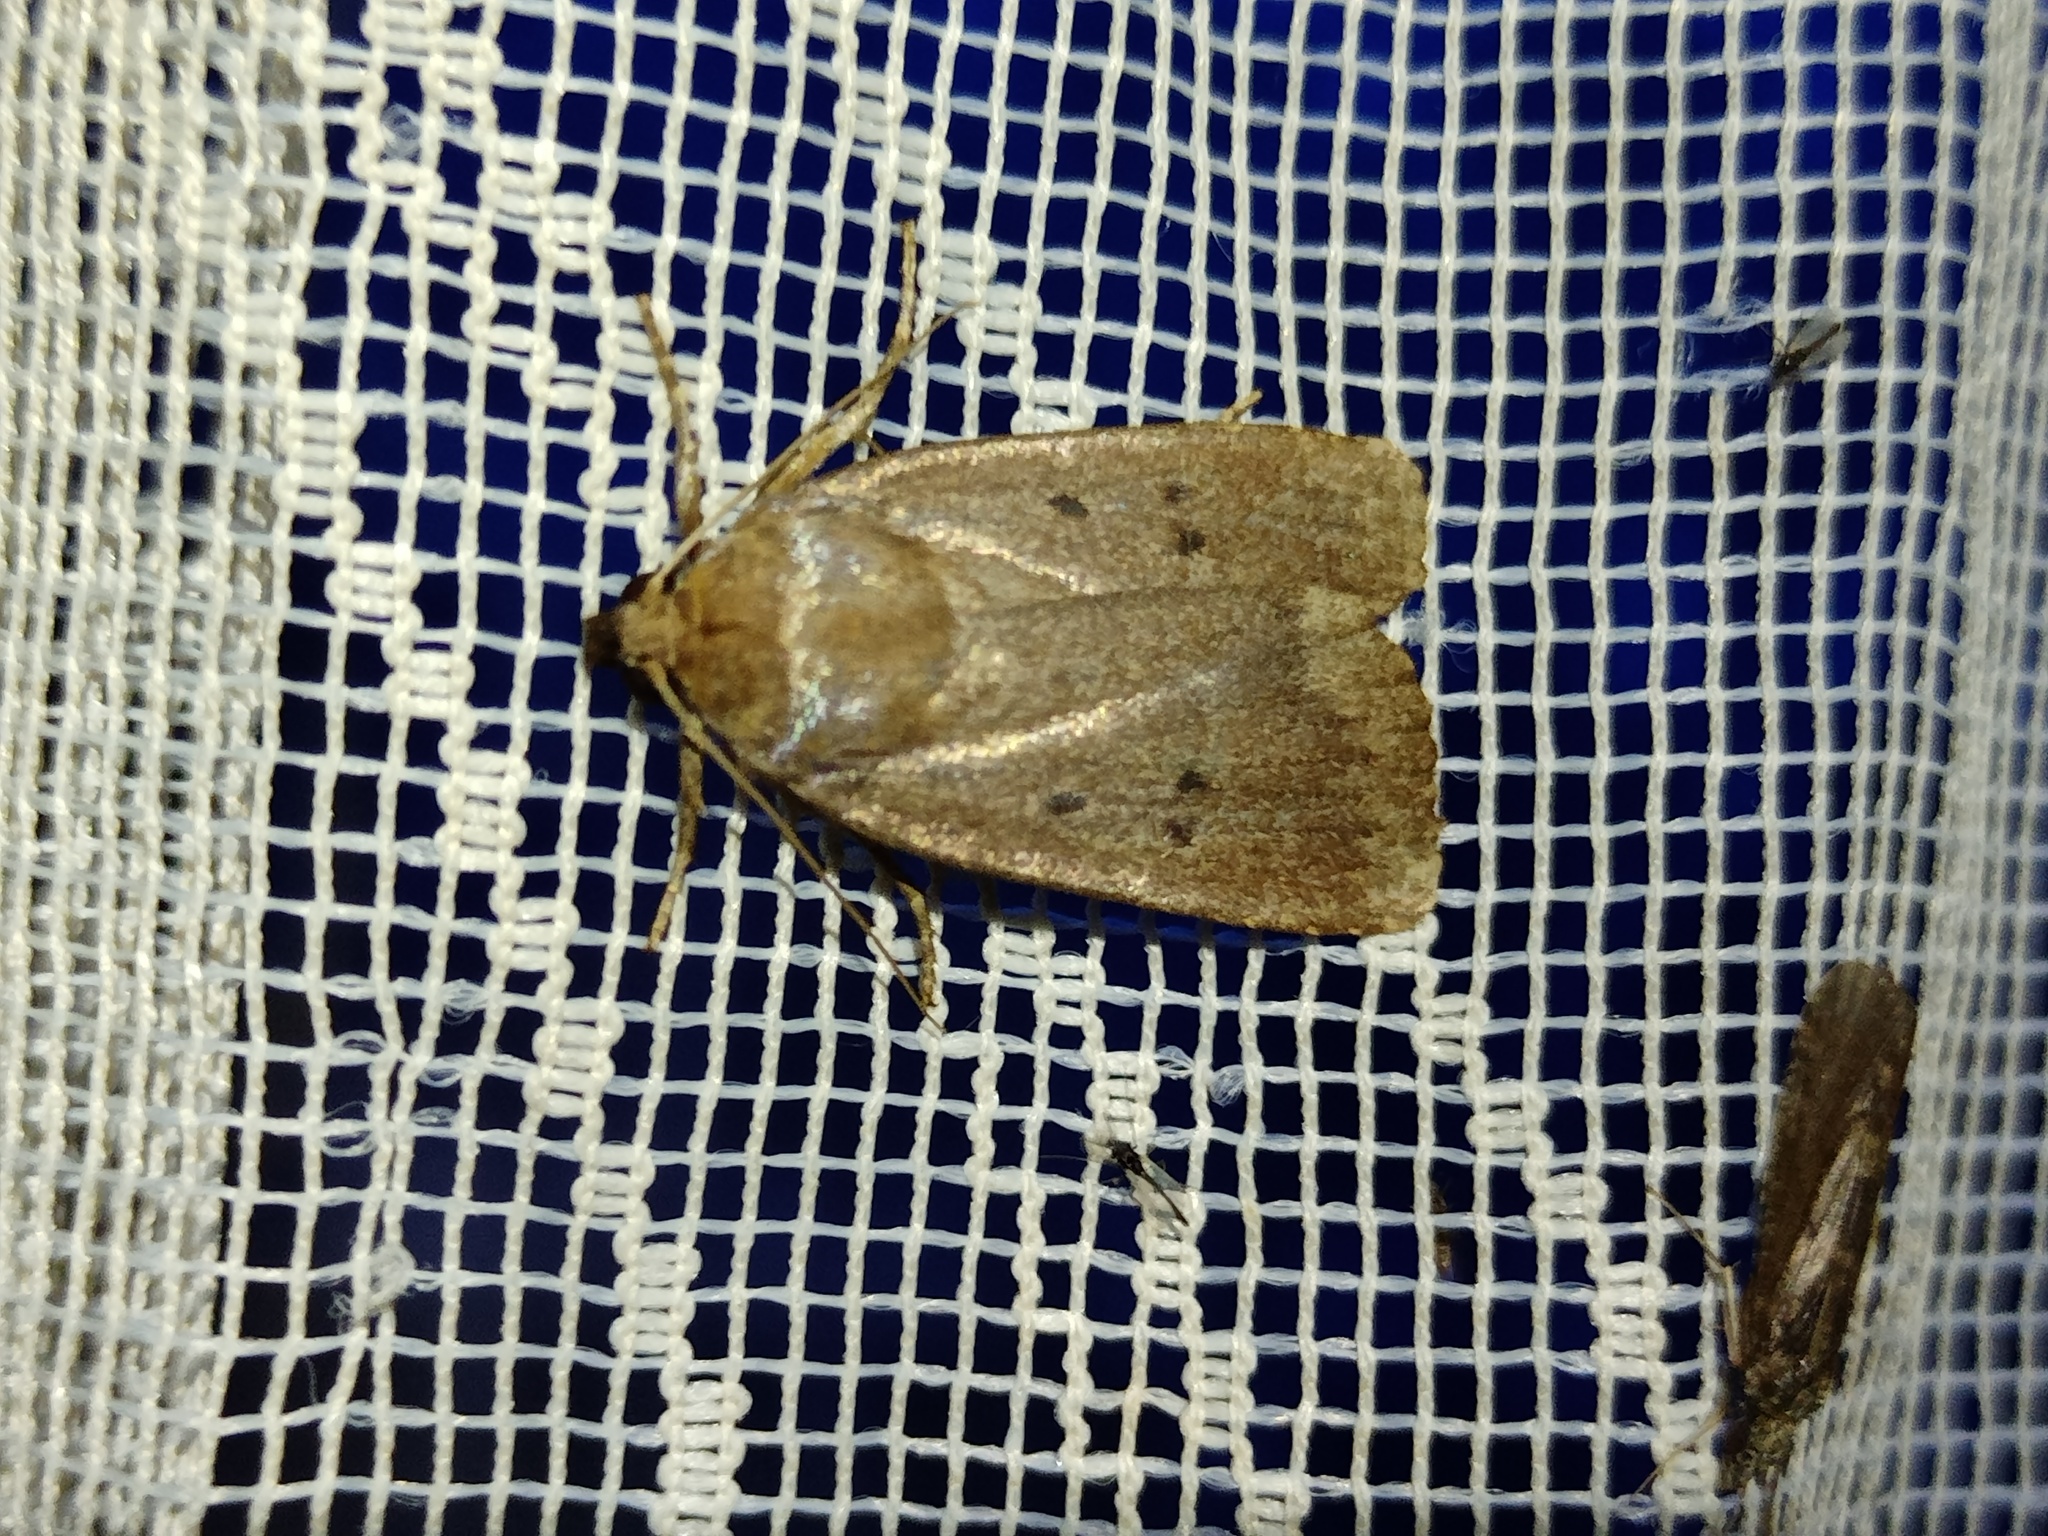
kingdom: Animalia
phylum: Arthropoda
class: Insecta
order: Lepidoptera
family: Noctuidae
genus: Amphipyra
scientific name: Amphipyra tragopoginis
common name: Mouse moth
